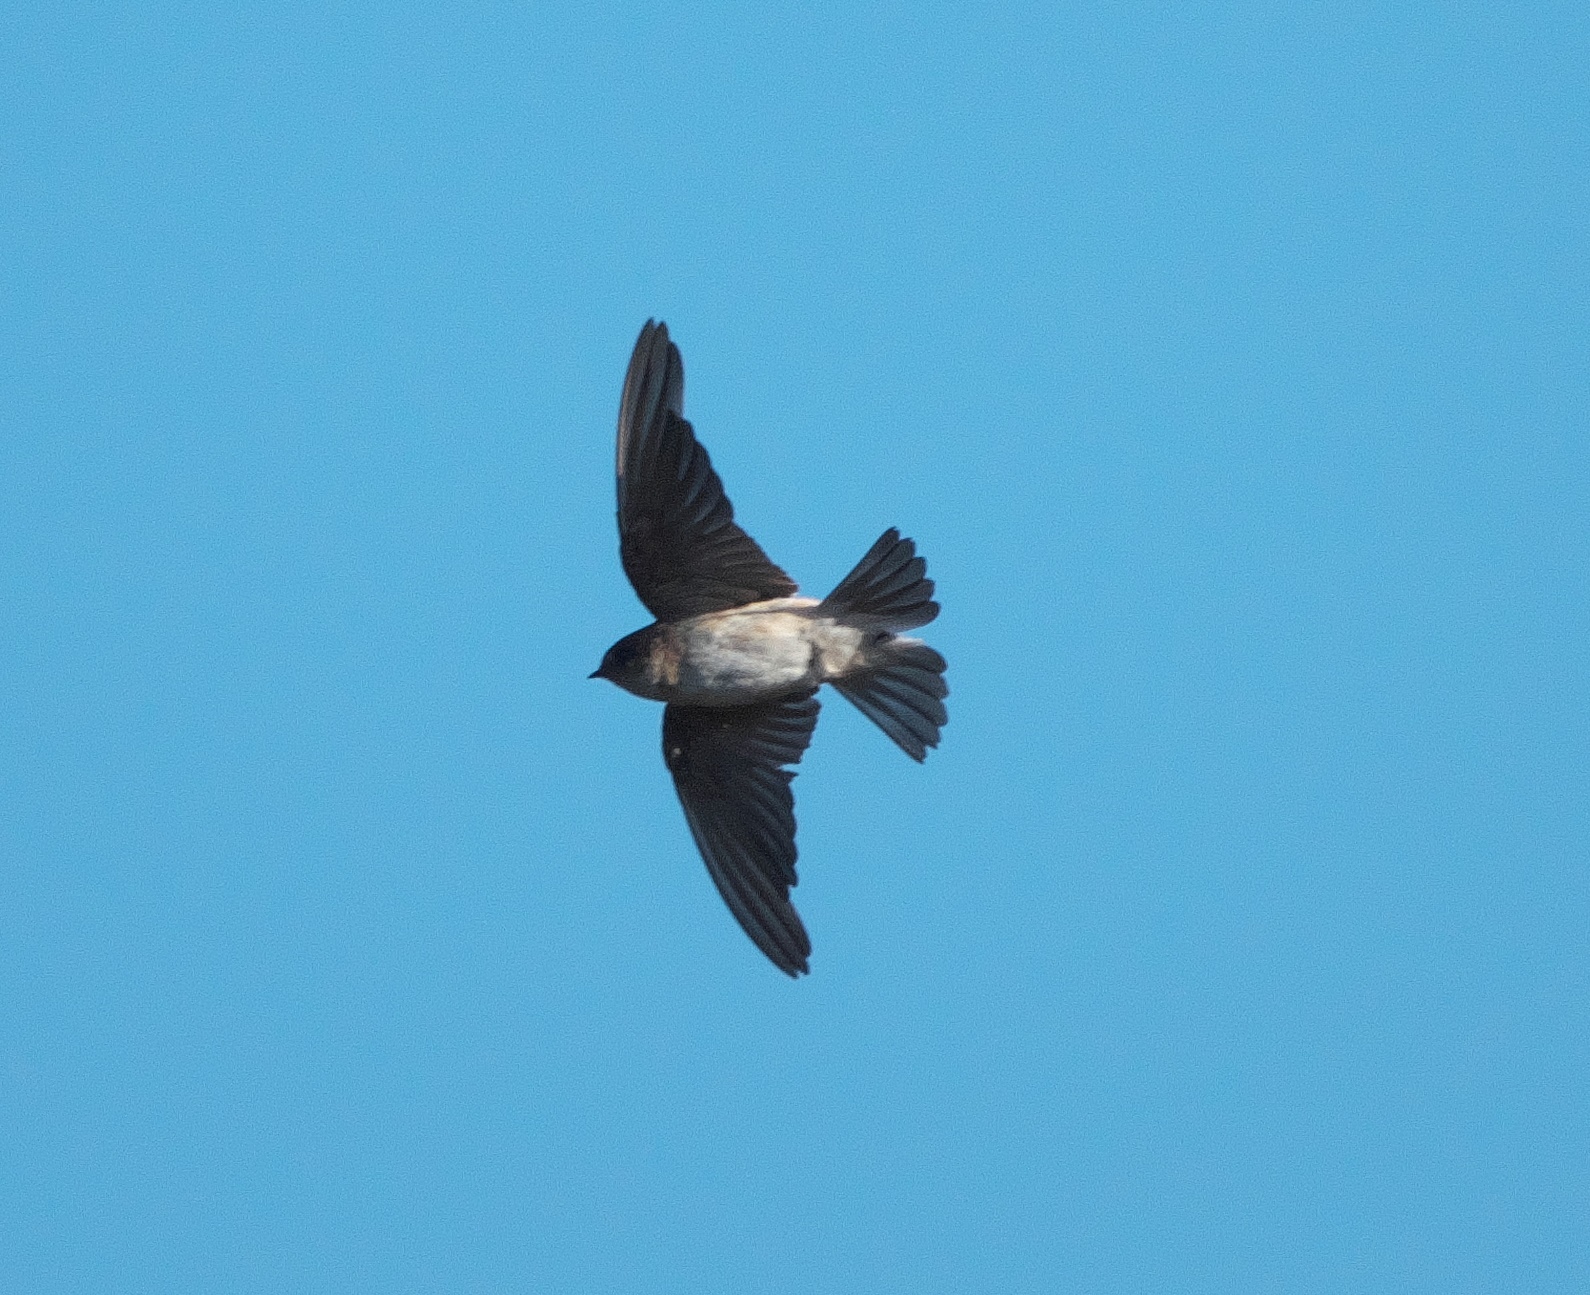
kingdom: Animalia
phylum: Chordata
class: Aves
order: Passeriformes
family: Hirundinidae
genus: Petrochelidon
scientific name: Petrochelidon nigricans
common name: Tree martin
